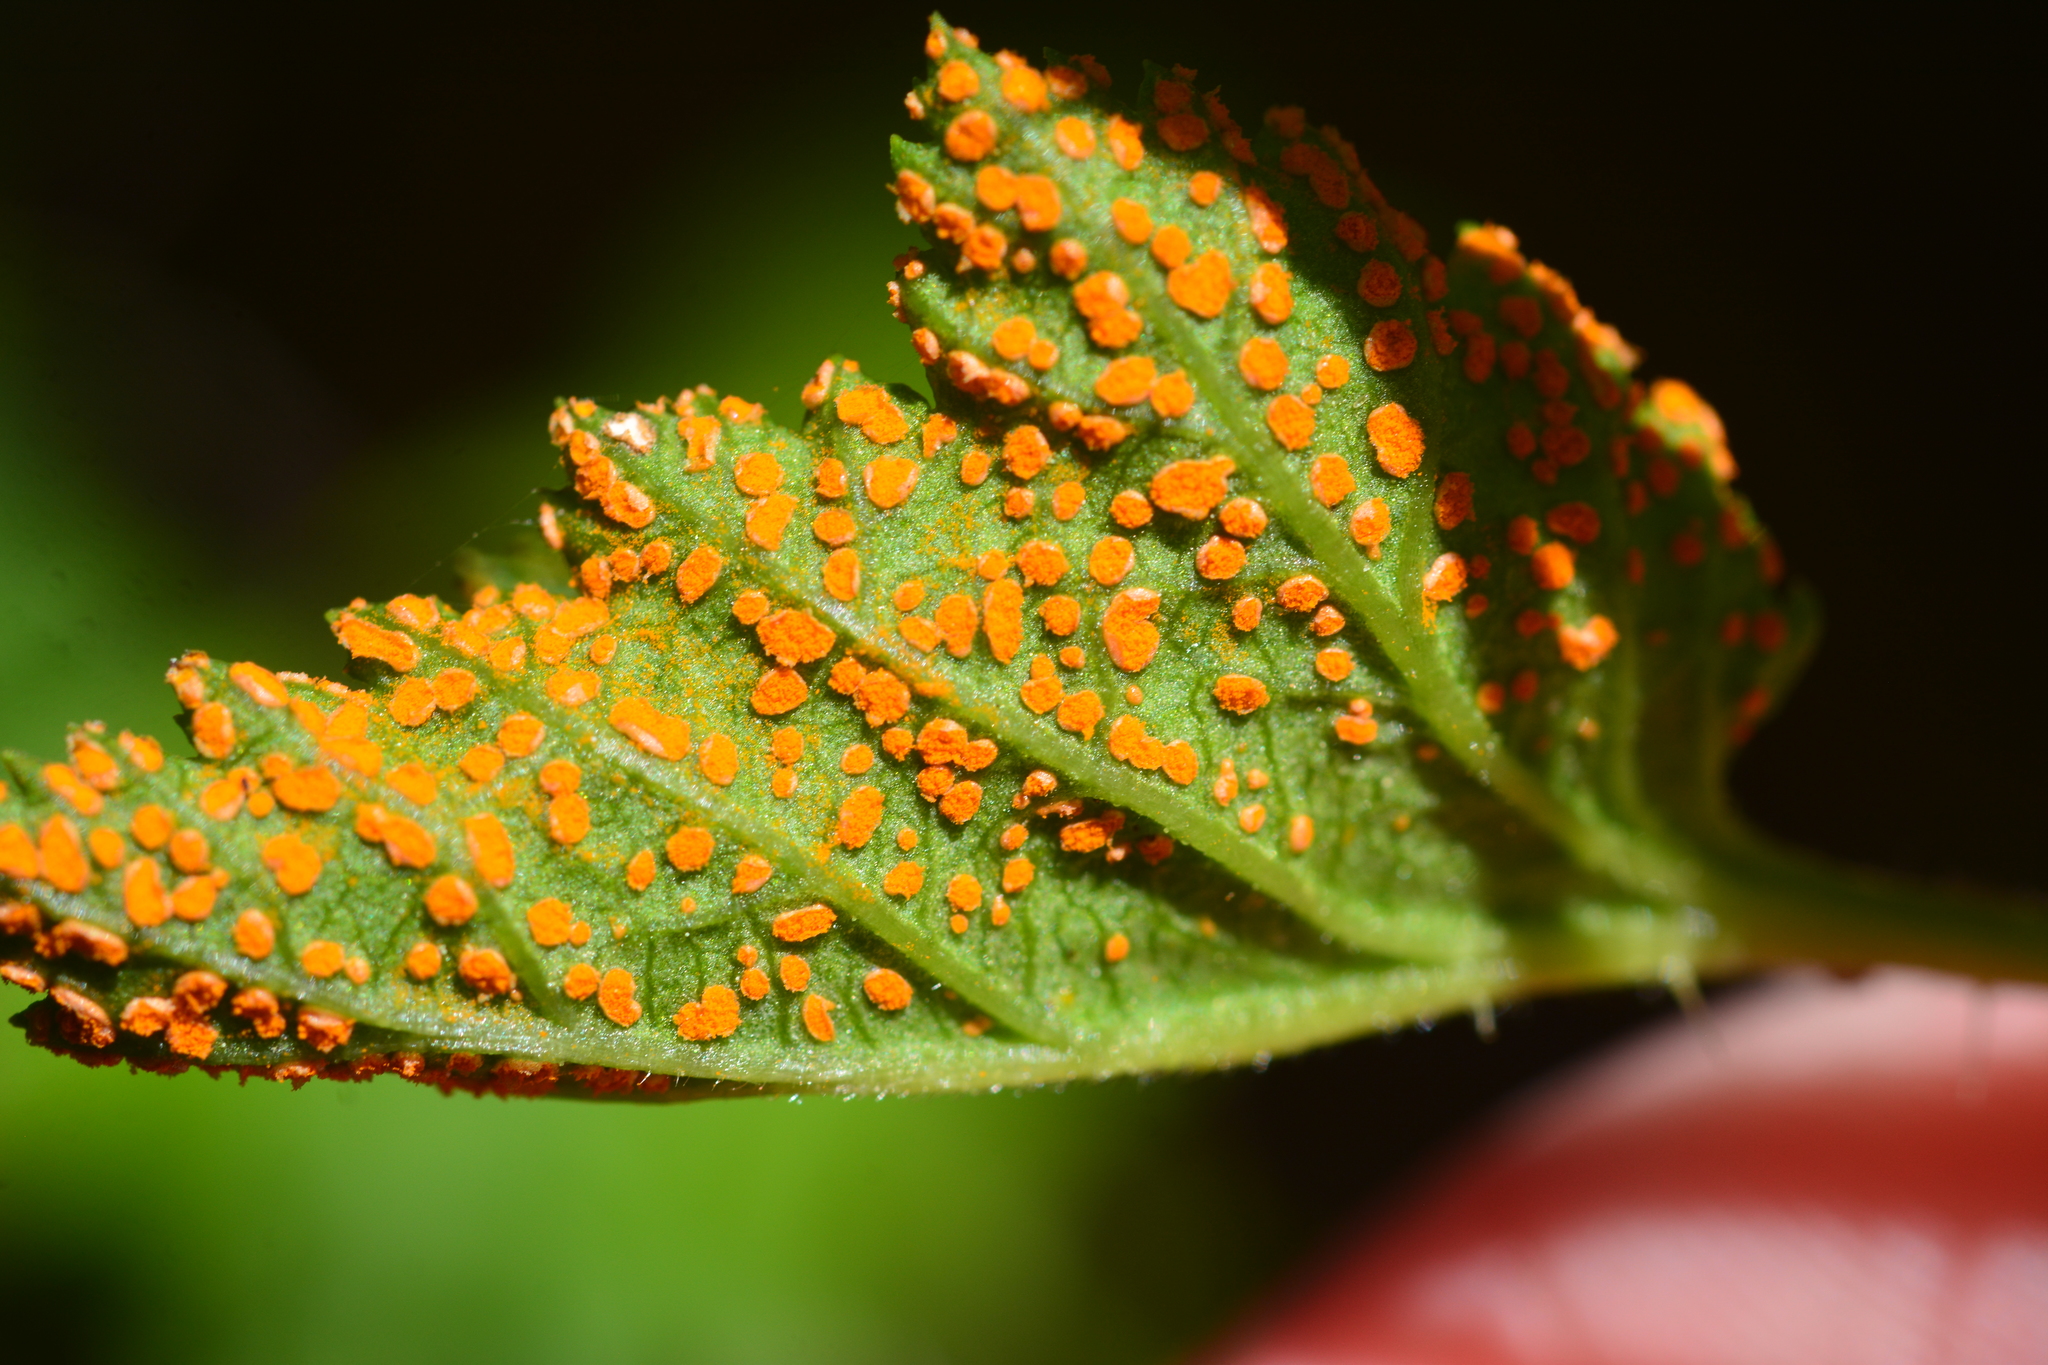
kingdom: Fungi
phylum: Basidiomycota
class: Pucciniomycetes
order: Pucciniales
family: Phragmidiaceae
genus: Arthuriomyces
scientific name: Arthuriomyces peckianus
